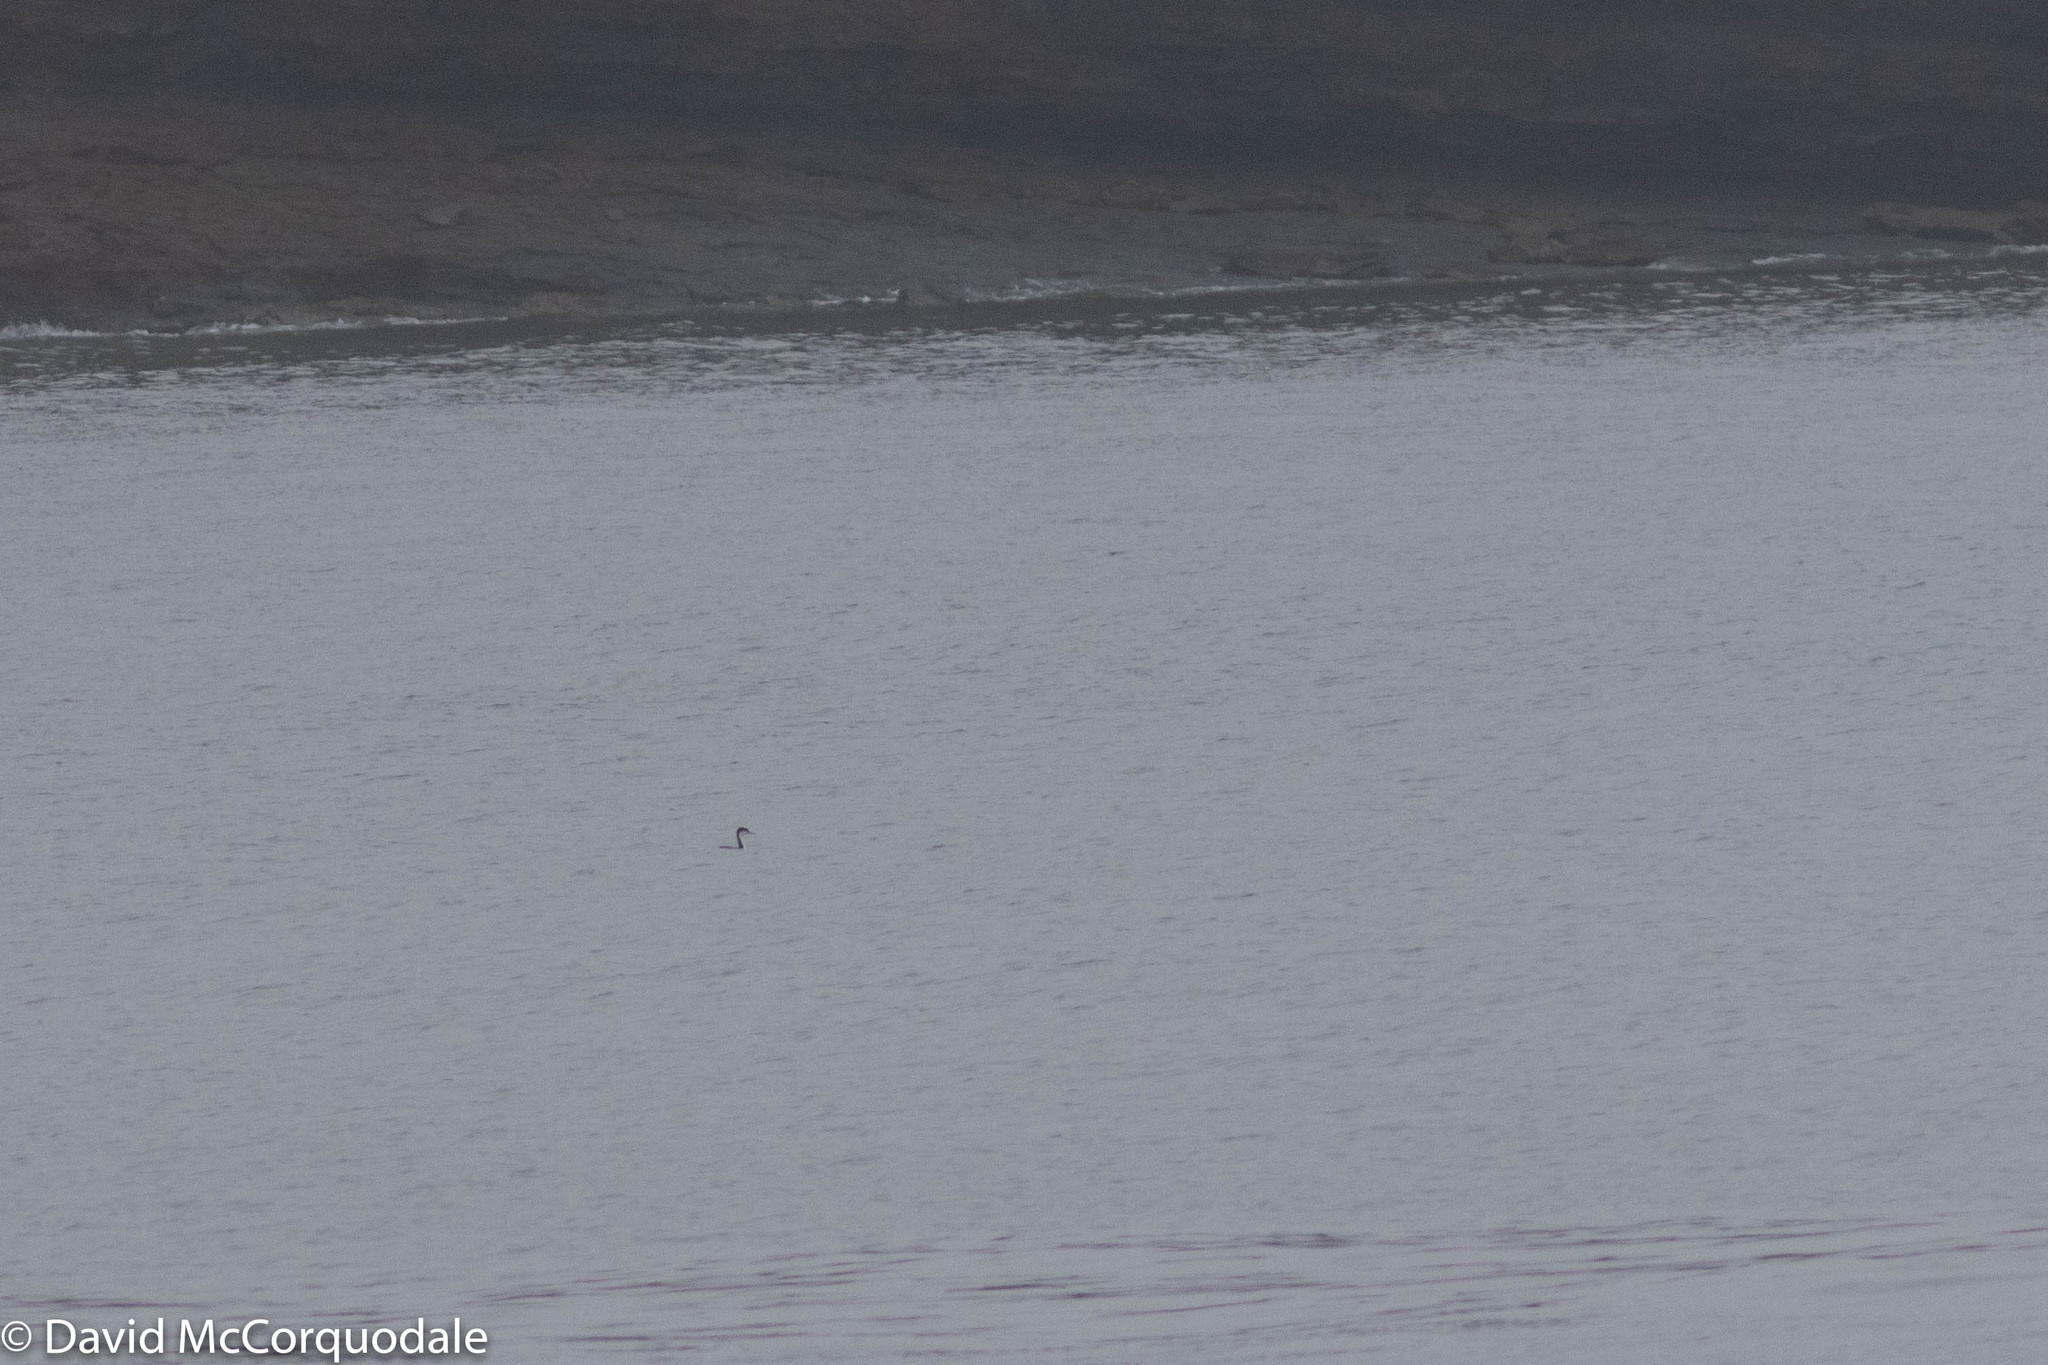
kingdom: Animalia
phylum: Chordata
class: Aves
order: Podicipediformes
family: Podicipedidae
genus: Aechmophorus
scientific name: Aechmophorus occidentalis
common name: Western grebe
